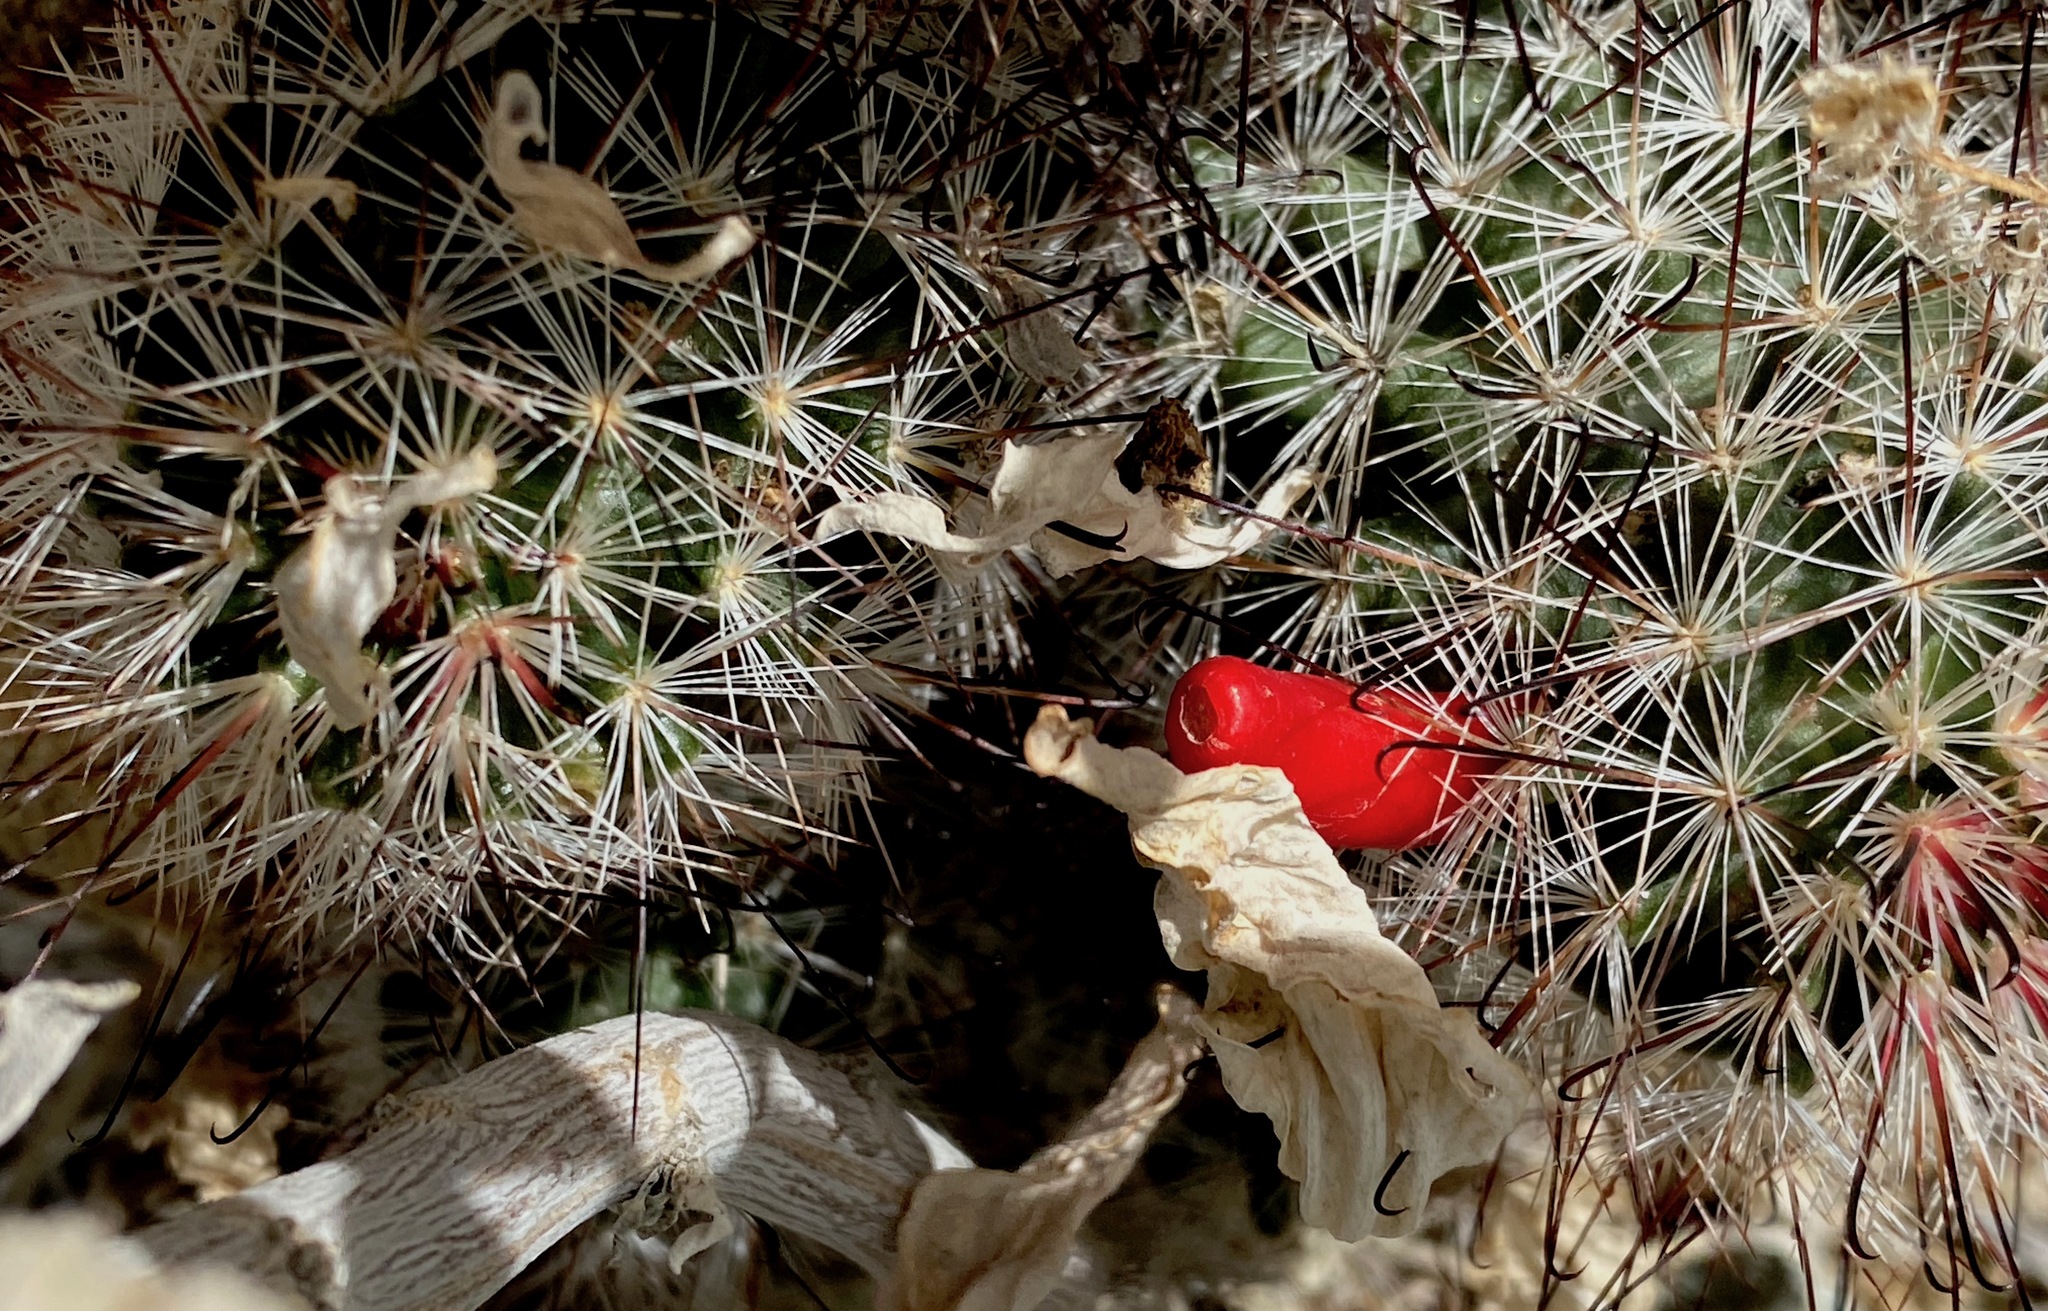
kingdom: Plantae
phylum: Tracheophyta
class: Magnoliopsida
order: Caryophyllales
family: Cactaceae
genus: Cochemiea
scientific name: Cochemiea tetrancistra
